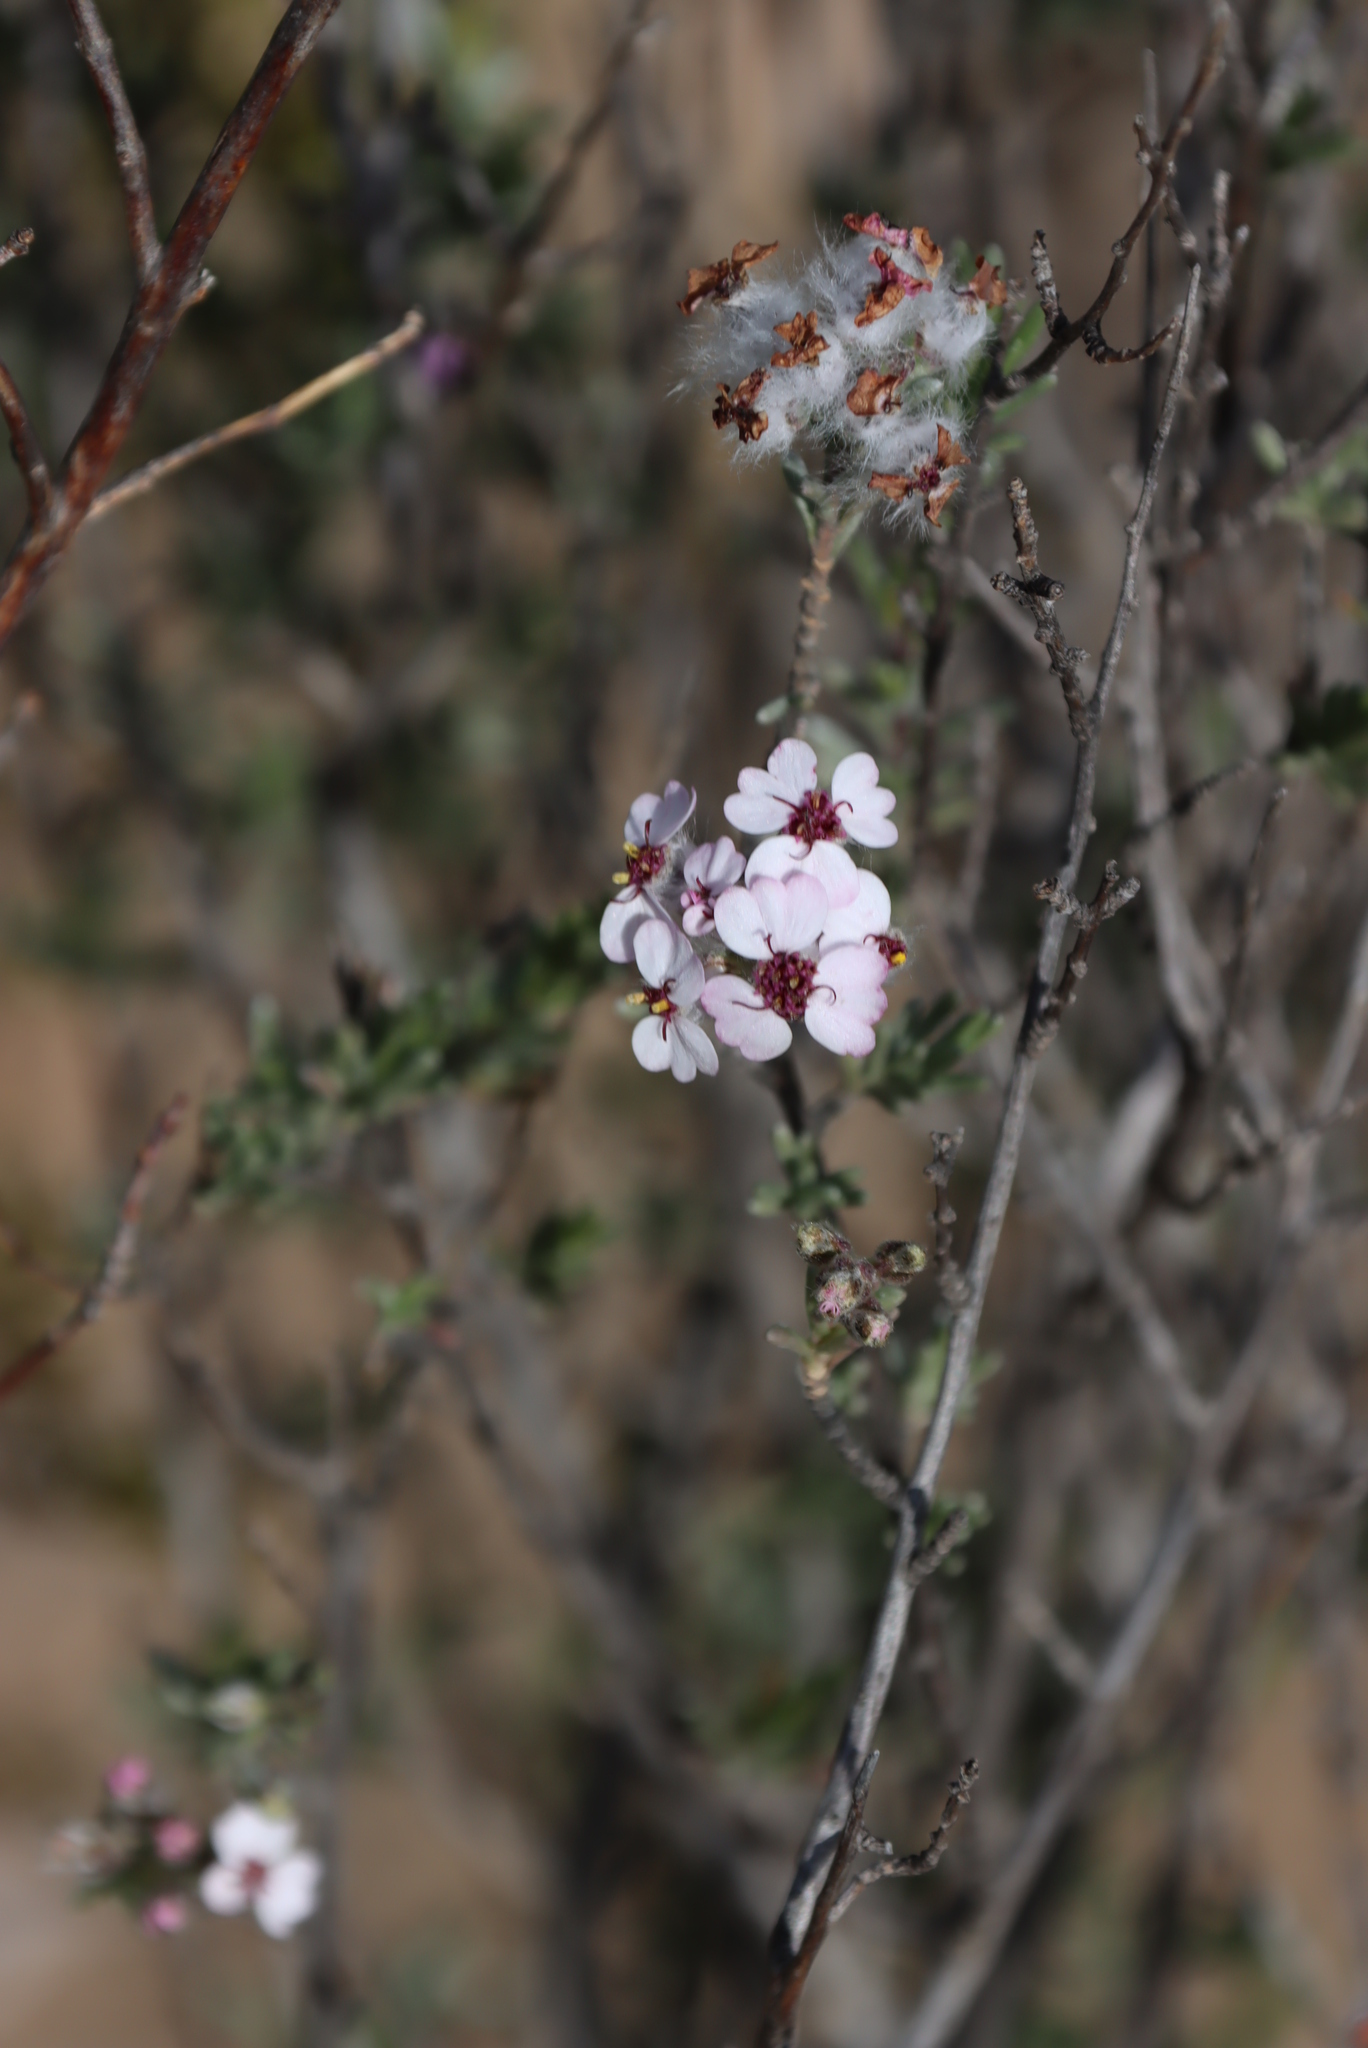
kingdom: Plantae
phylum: Tracheophyta
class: Magnoliopsida
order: Asterales
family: Asteraceae
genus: Eriocephalus
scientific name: Eriocephalus africanus
